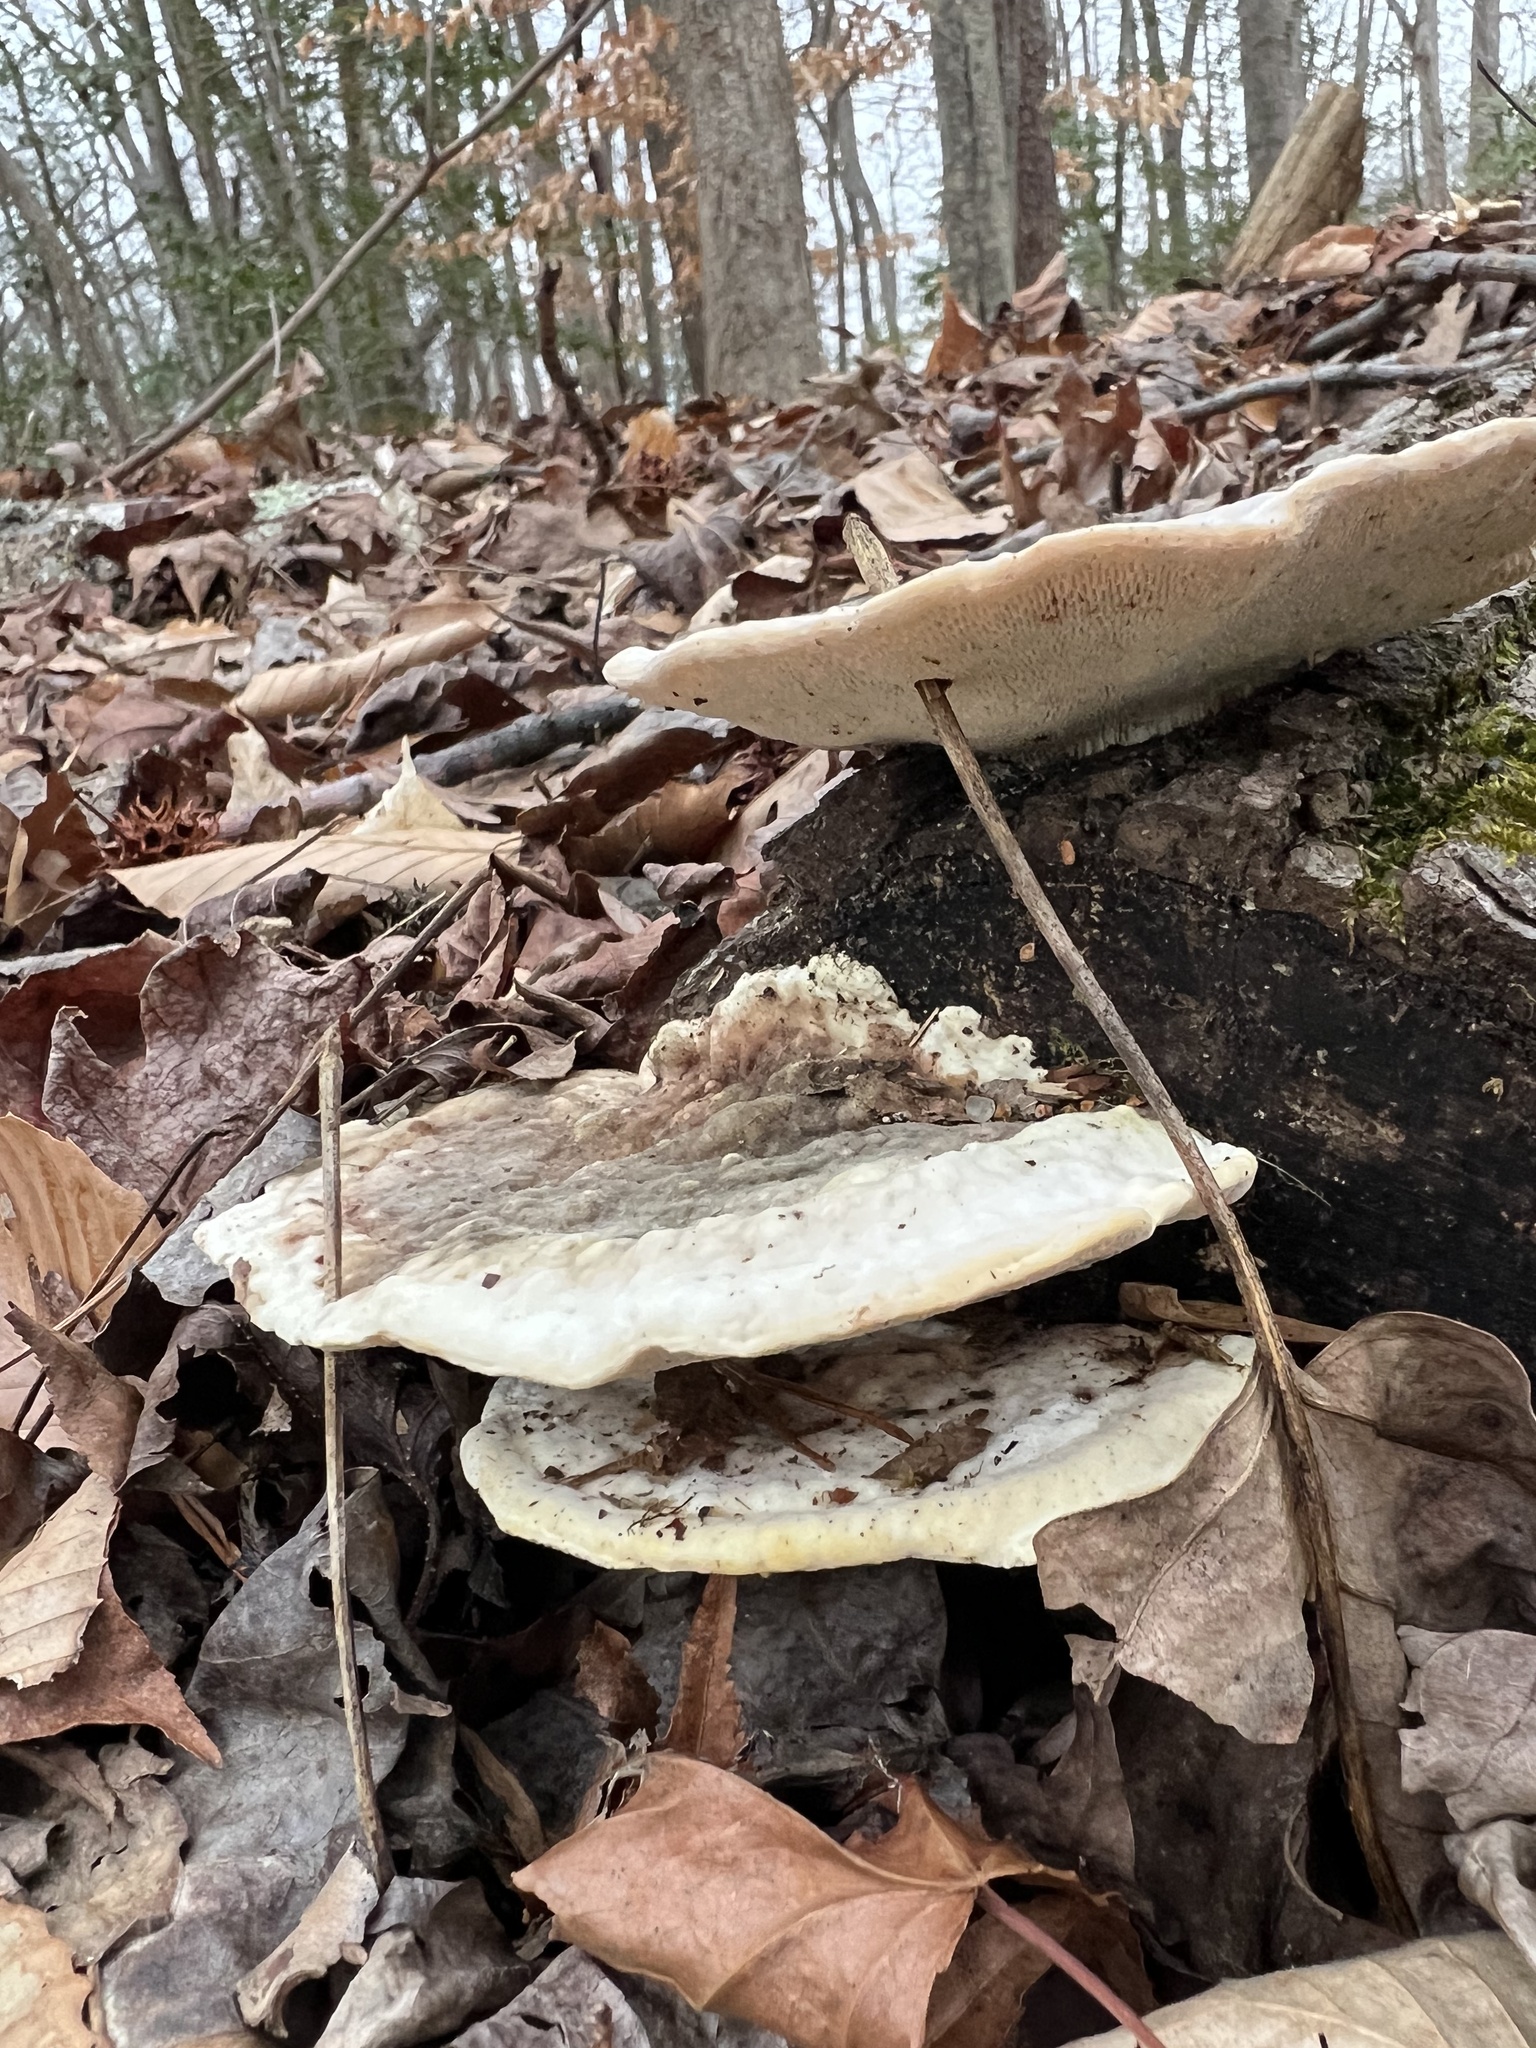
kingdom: Fungi
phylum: Basidiomycota
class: Agaricomycetes
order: Polyporales
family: Polyporaceae
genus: Trametes
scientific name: Trametes gibbosa
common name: Lumpy bracket
